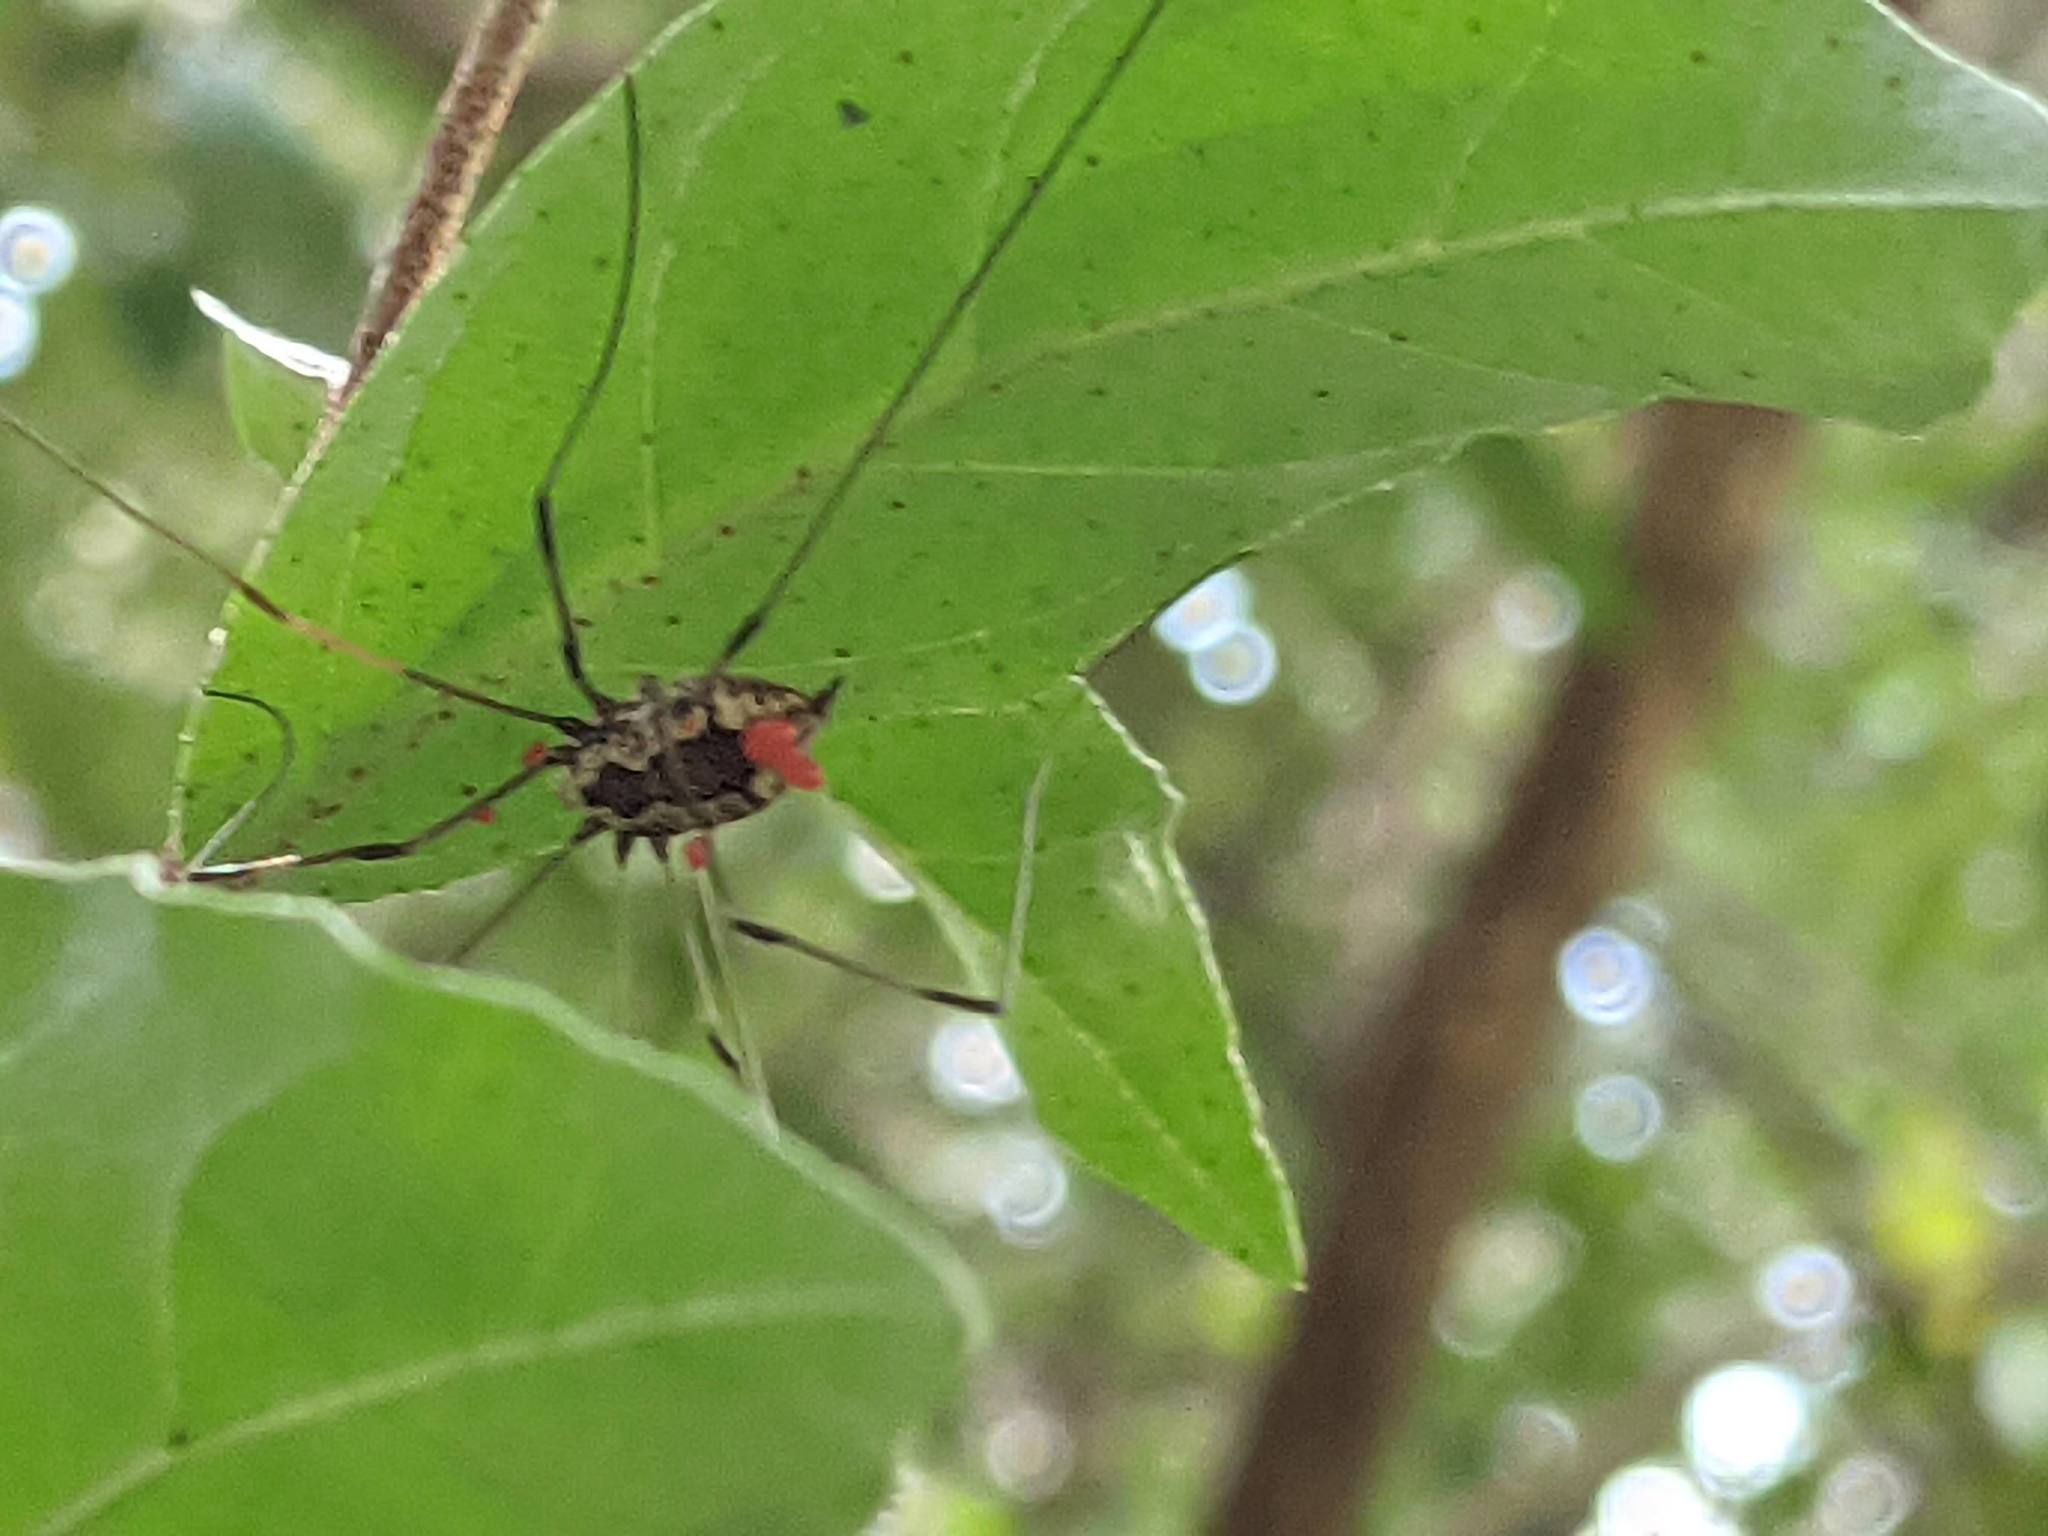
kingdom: Animalia
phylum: Arthropoda
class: Arachnida
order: Opiliones
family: Sclerosomatidae
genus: Leiobunum
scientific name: Leiobunum vittatum
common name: Eastern harvestman
